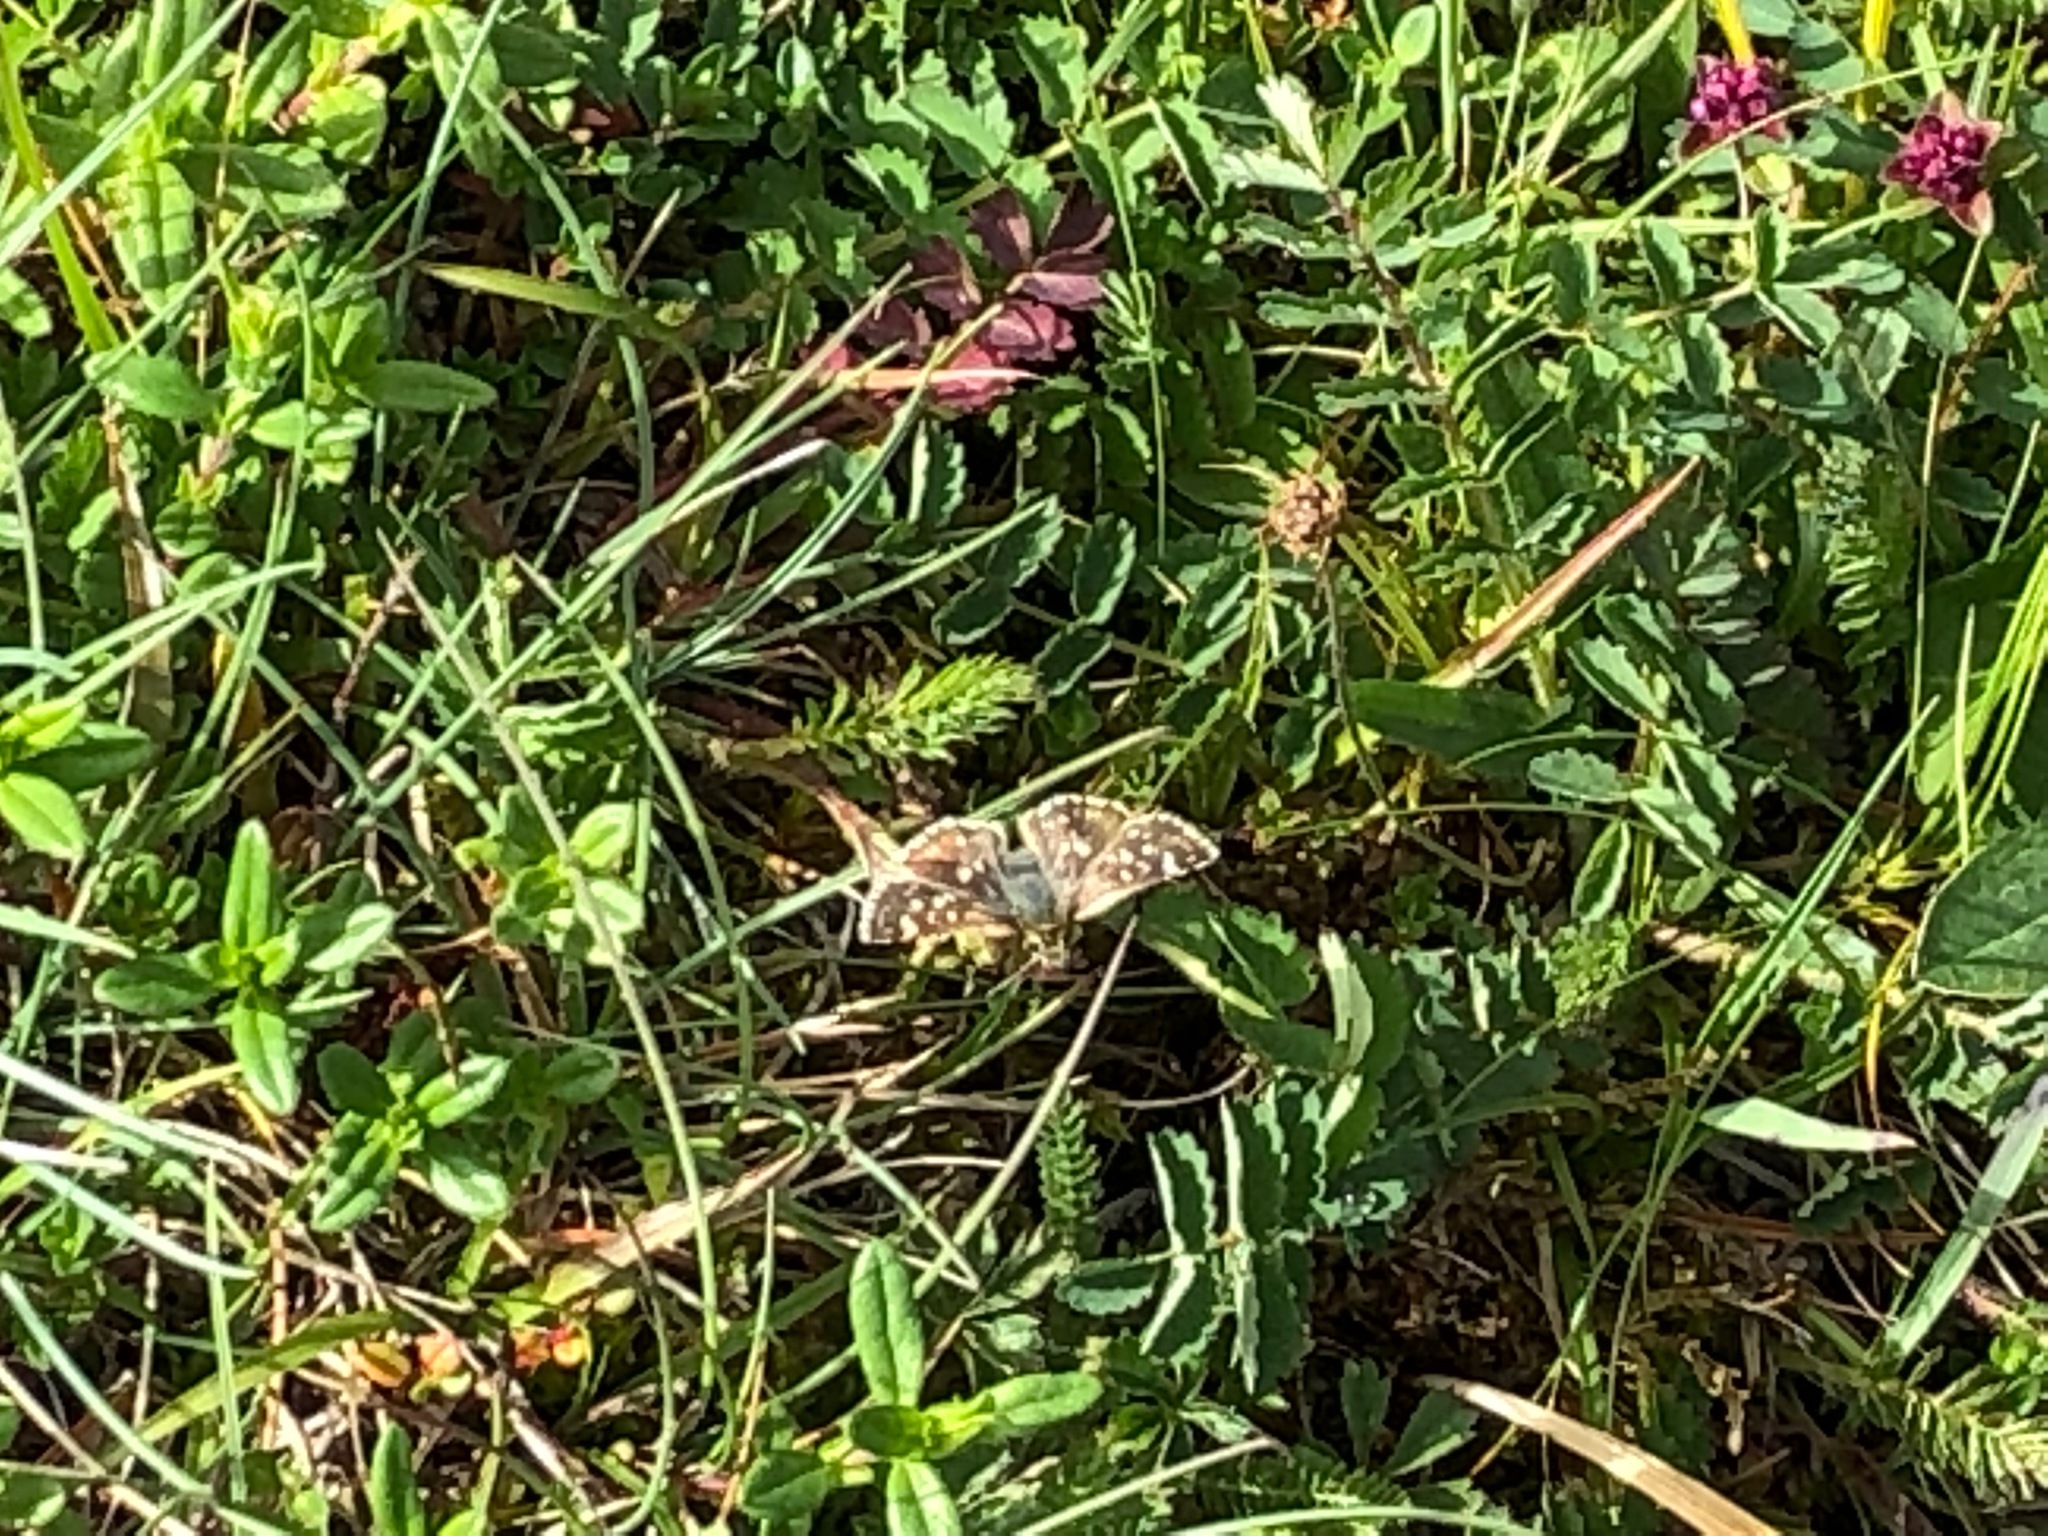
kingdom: Animalia
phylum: Arthropoda
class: Insecta
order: Lepidoptera
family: Hesperiidae
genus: Spialia
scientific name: Spialia sertorius
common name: Red underwing skipper
